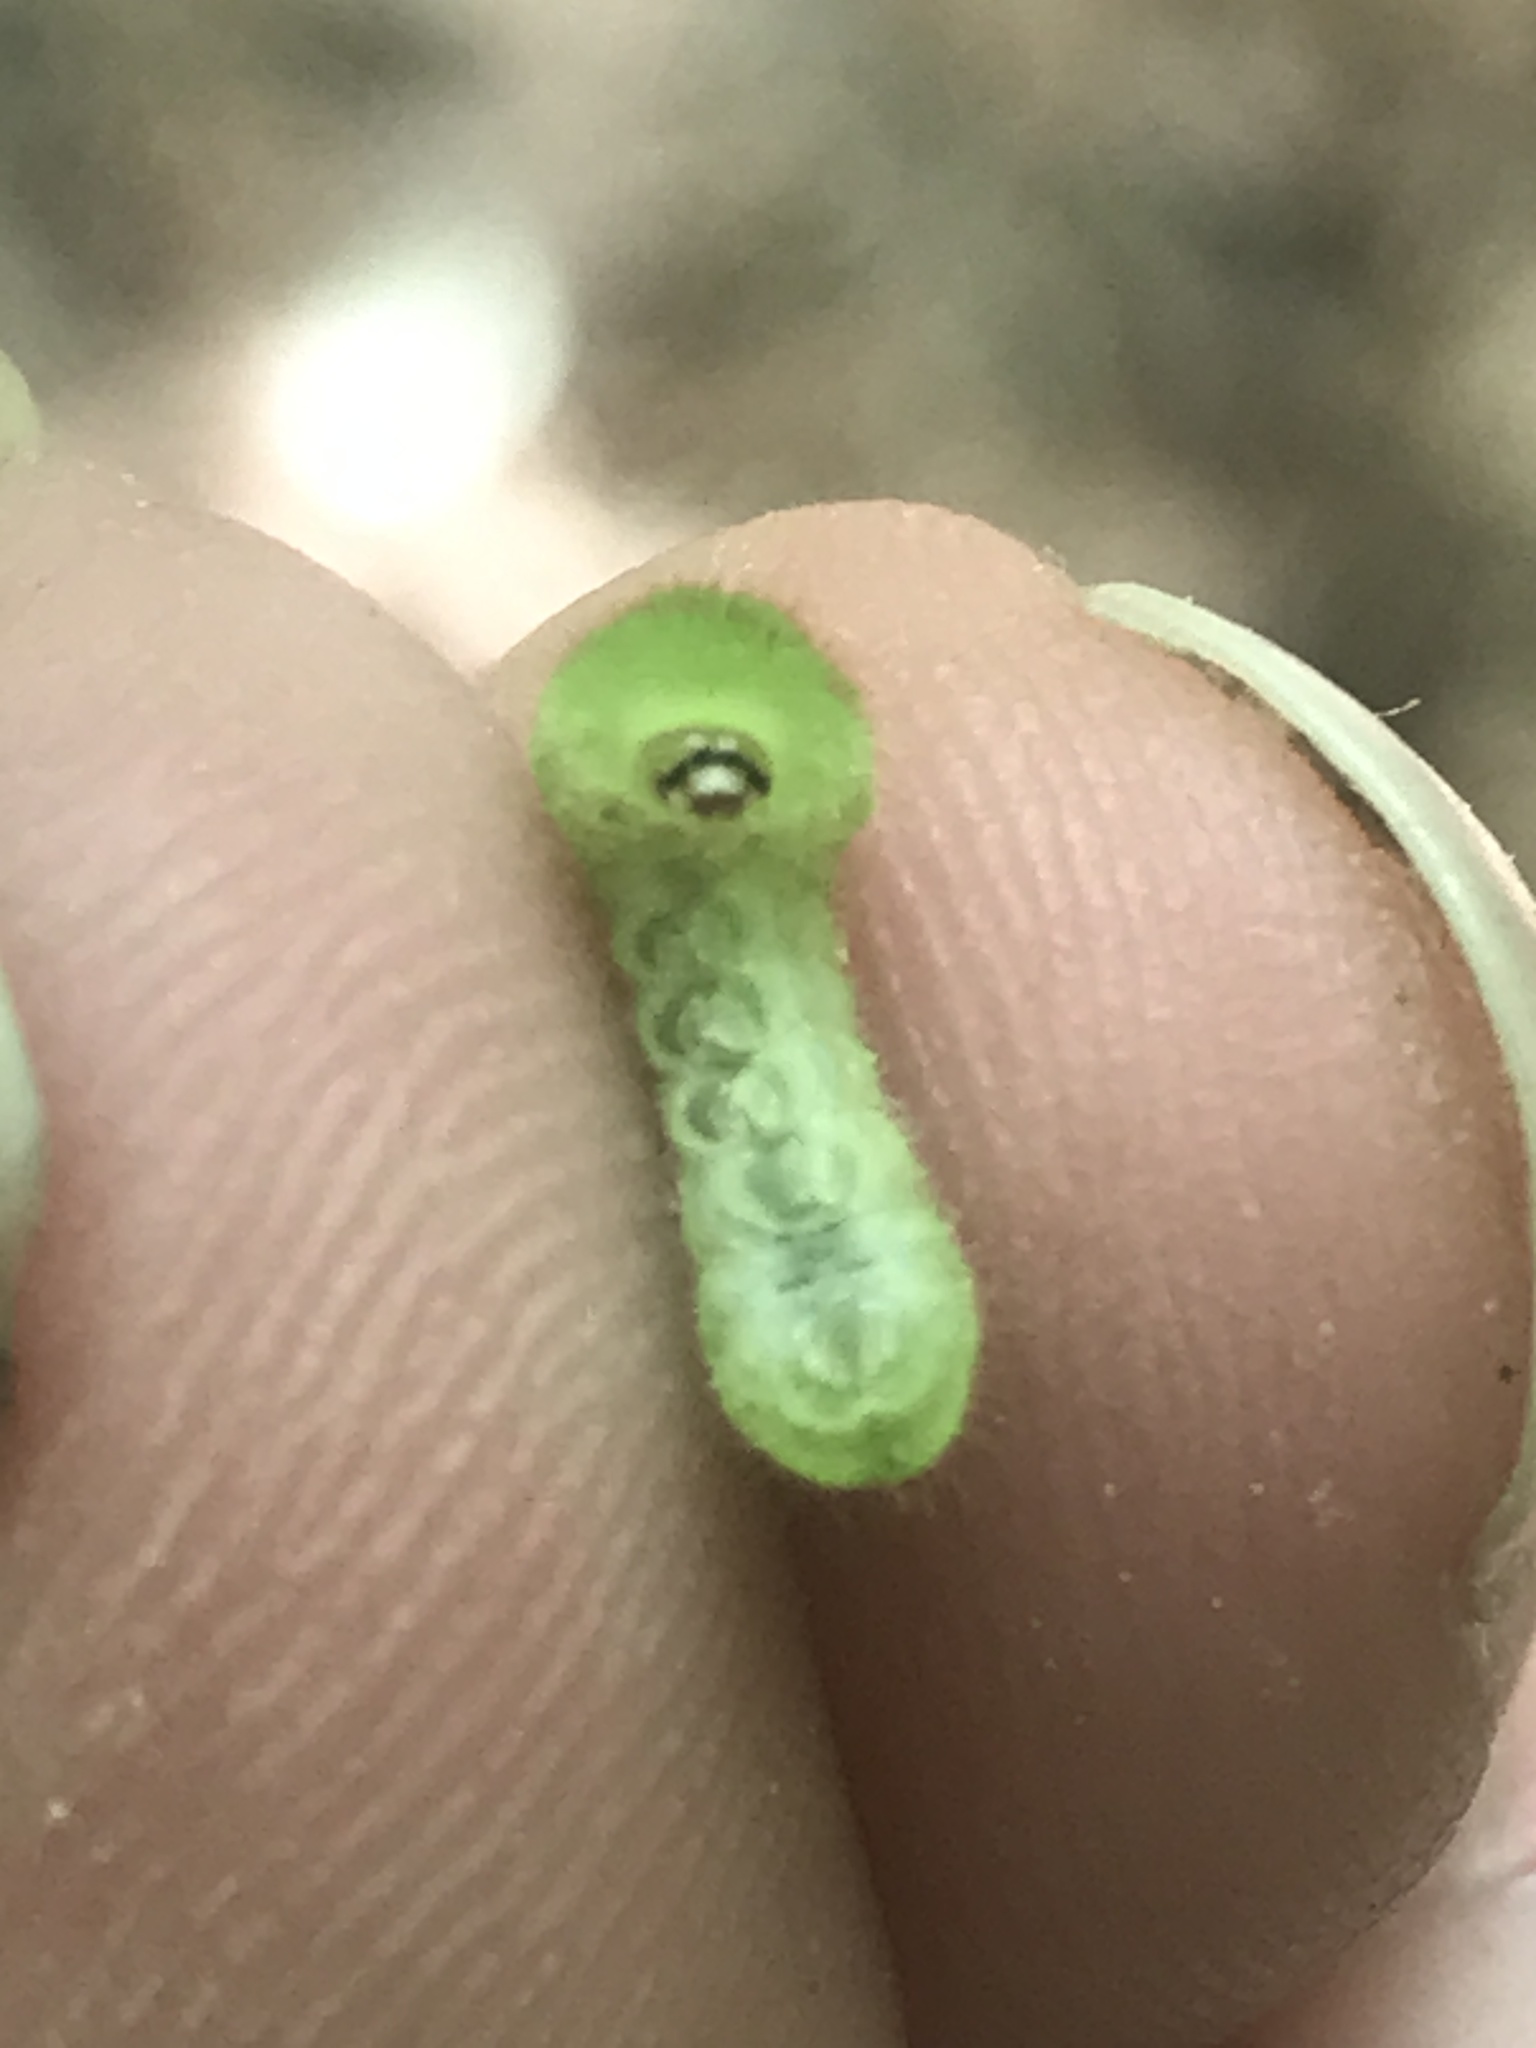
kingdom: Animalia
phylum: Arthropoda
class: Insecta
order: Lepidoptera
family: Lycaenidae
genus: Satyrium
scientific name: Satyrium liparops
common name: Striped hairstreak
